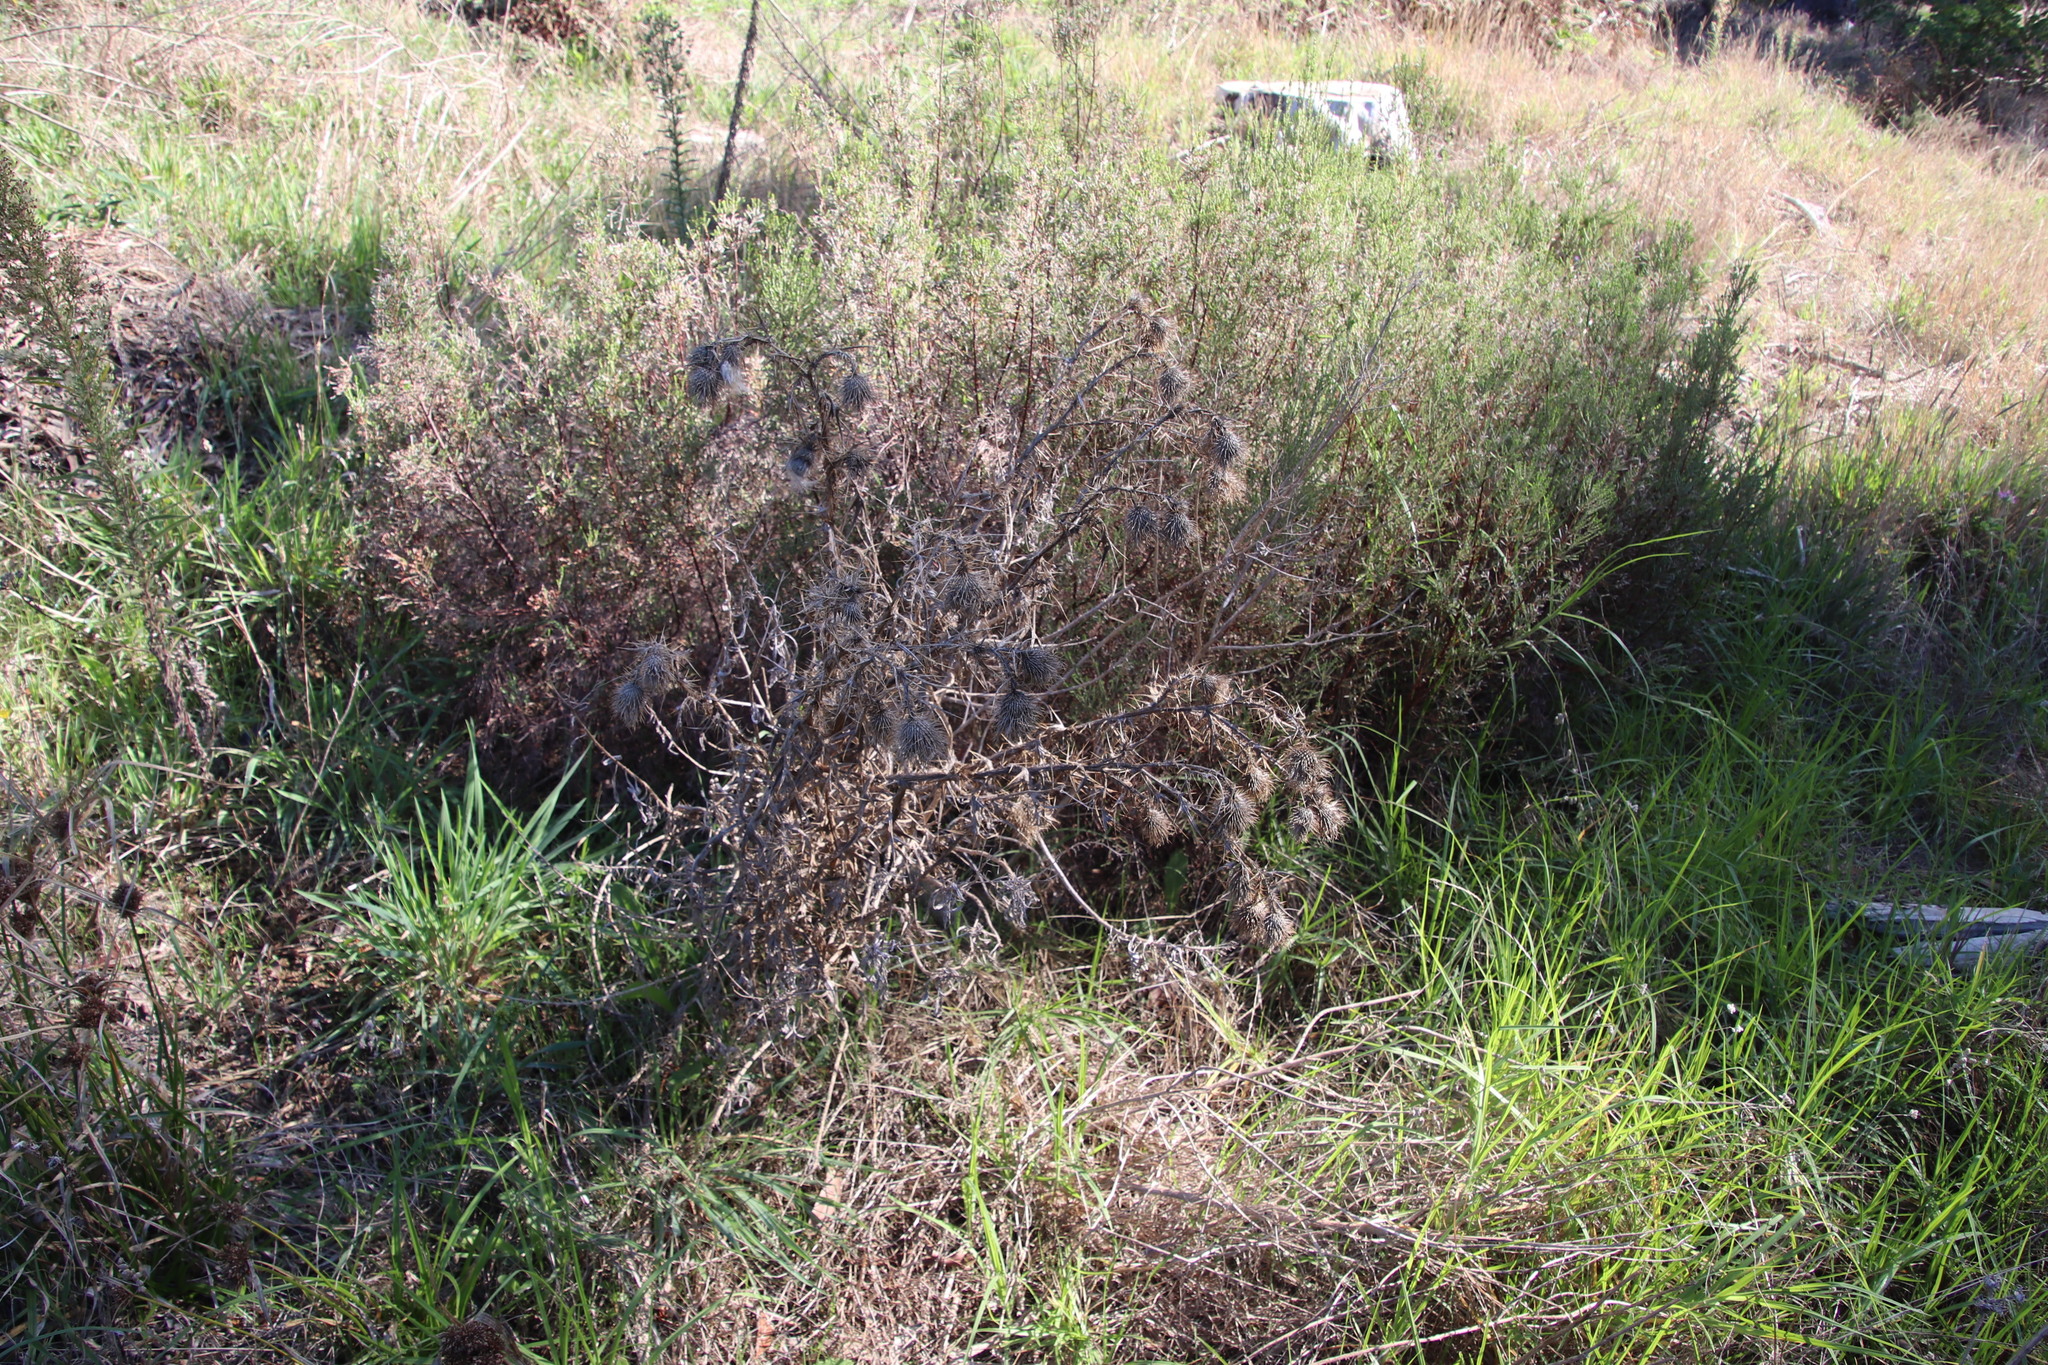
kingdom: Plantae
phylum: Tracheophyta
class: Magnoliopsida
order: Asterales
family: Asteraceae
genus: Cirsium
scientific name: Cirsium vulgare
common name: Bull thistle
